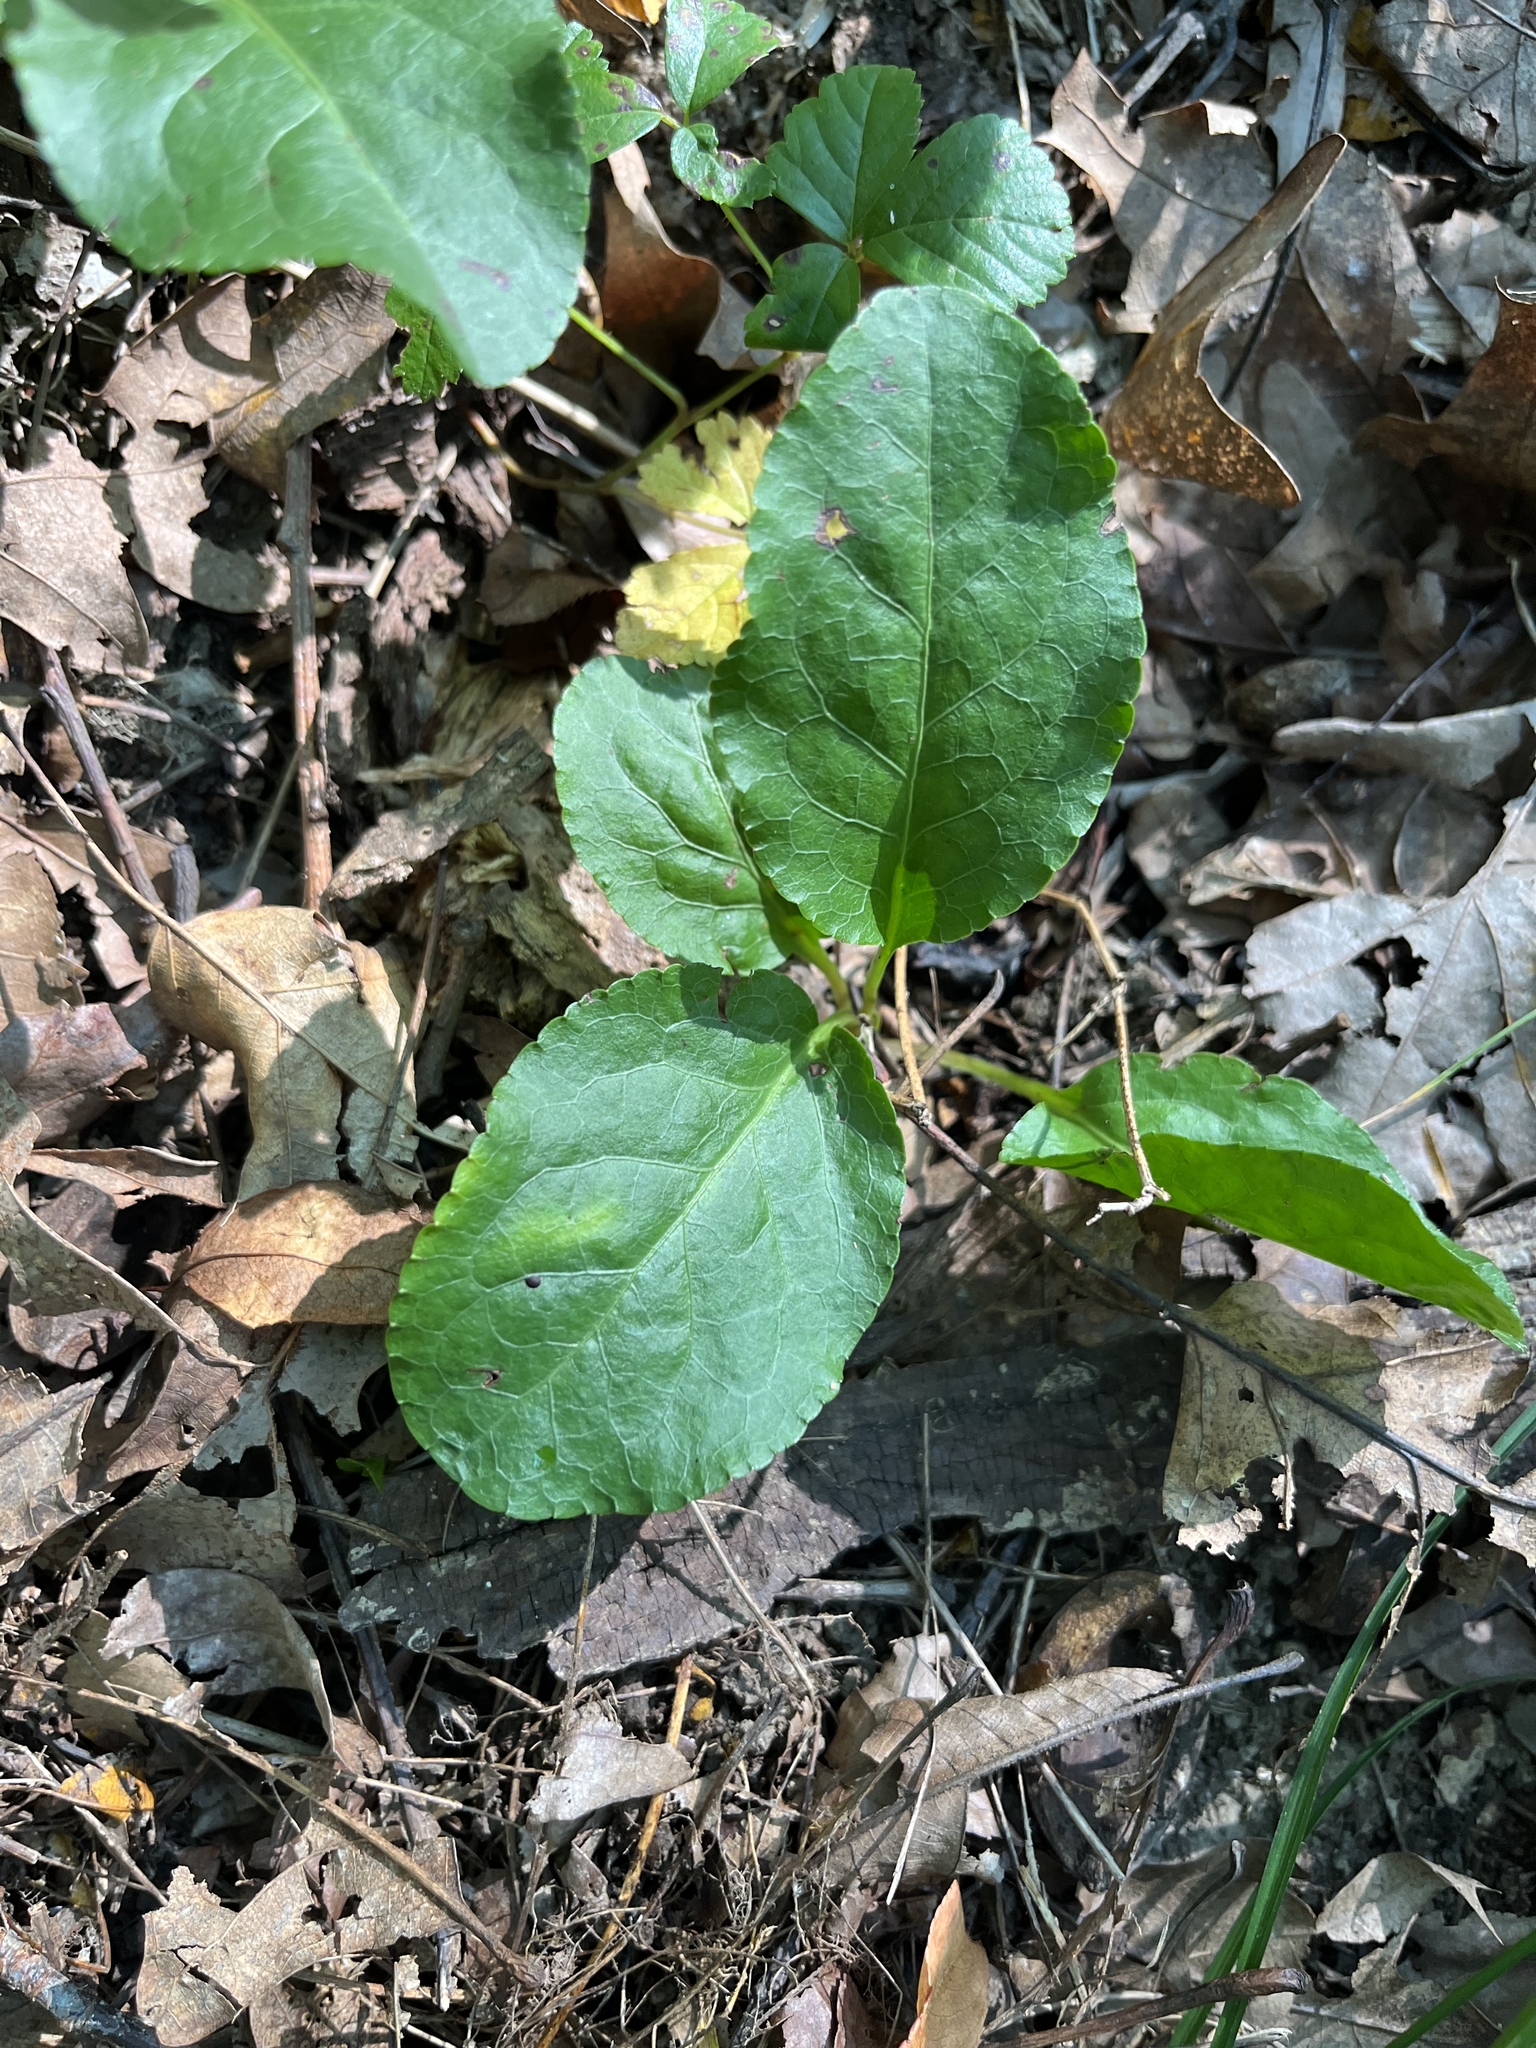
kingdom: Plantae
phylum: Tracheophyta
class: Magnoliopsida
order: Ericales
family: Ericaceae
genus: Pyrola
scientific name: Pyrola elliptica
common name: Shinleaf
